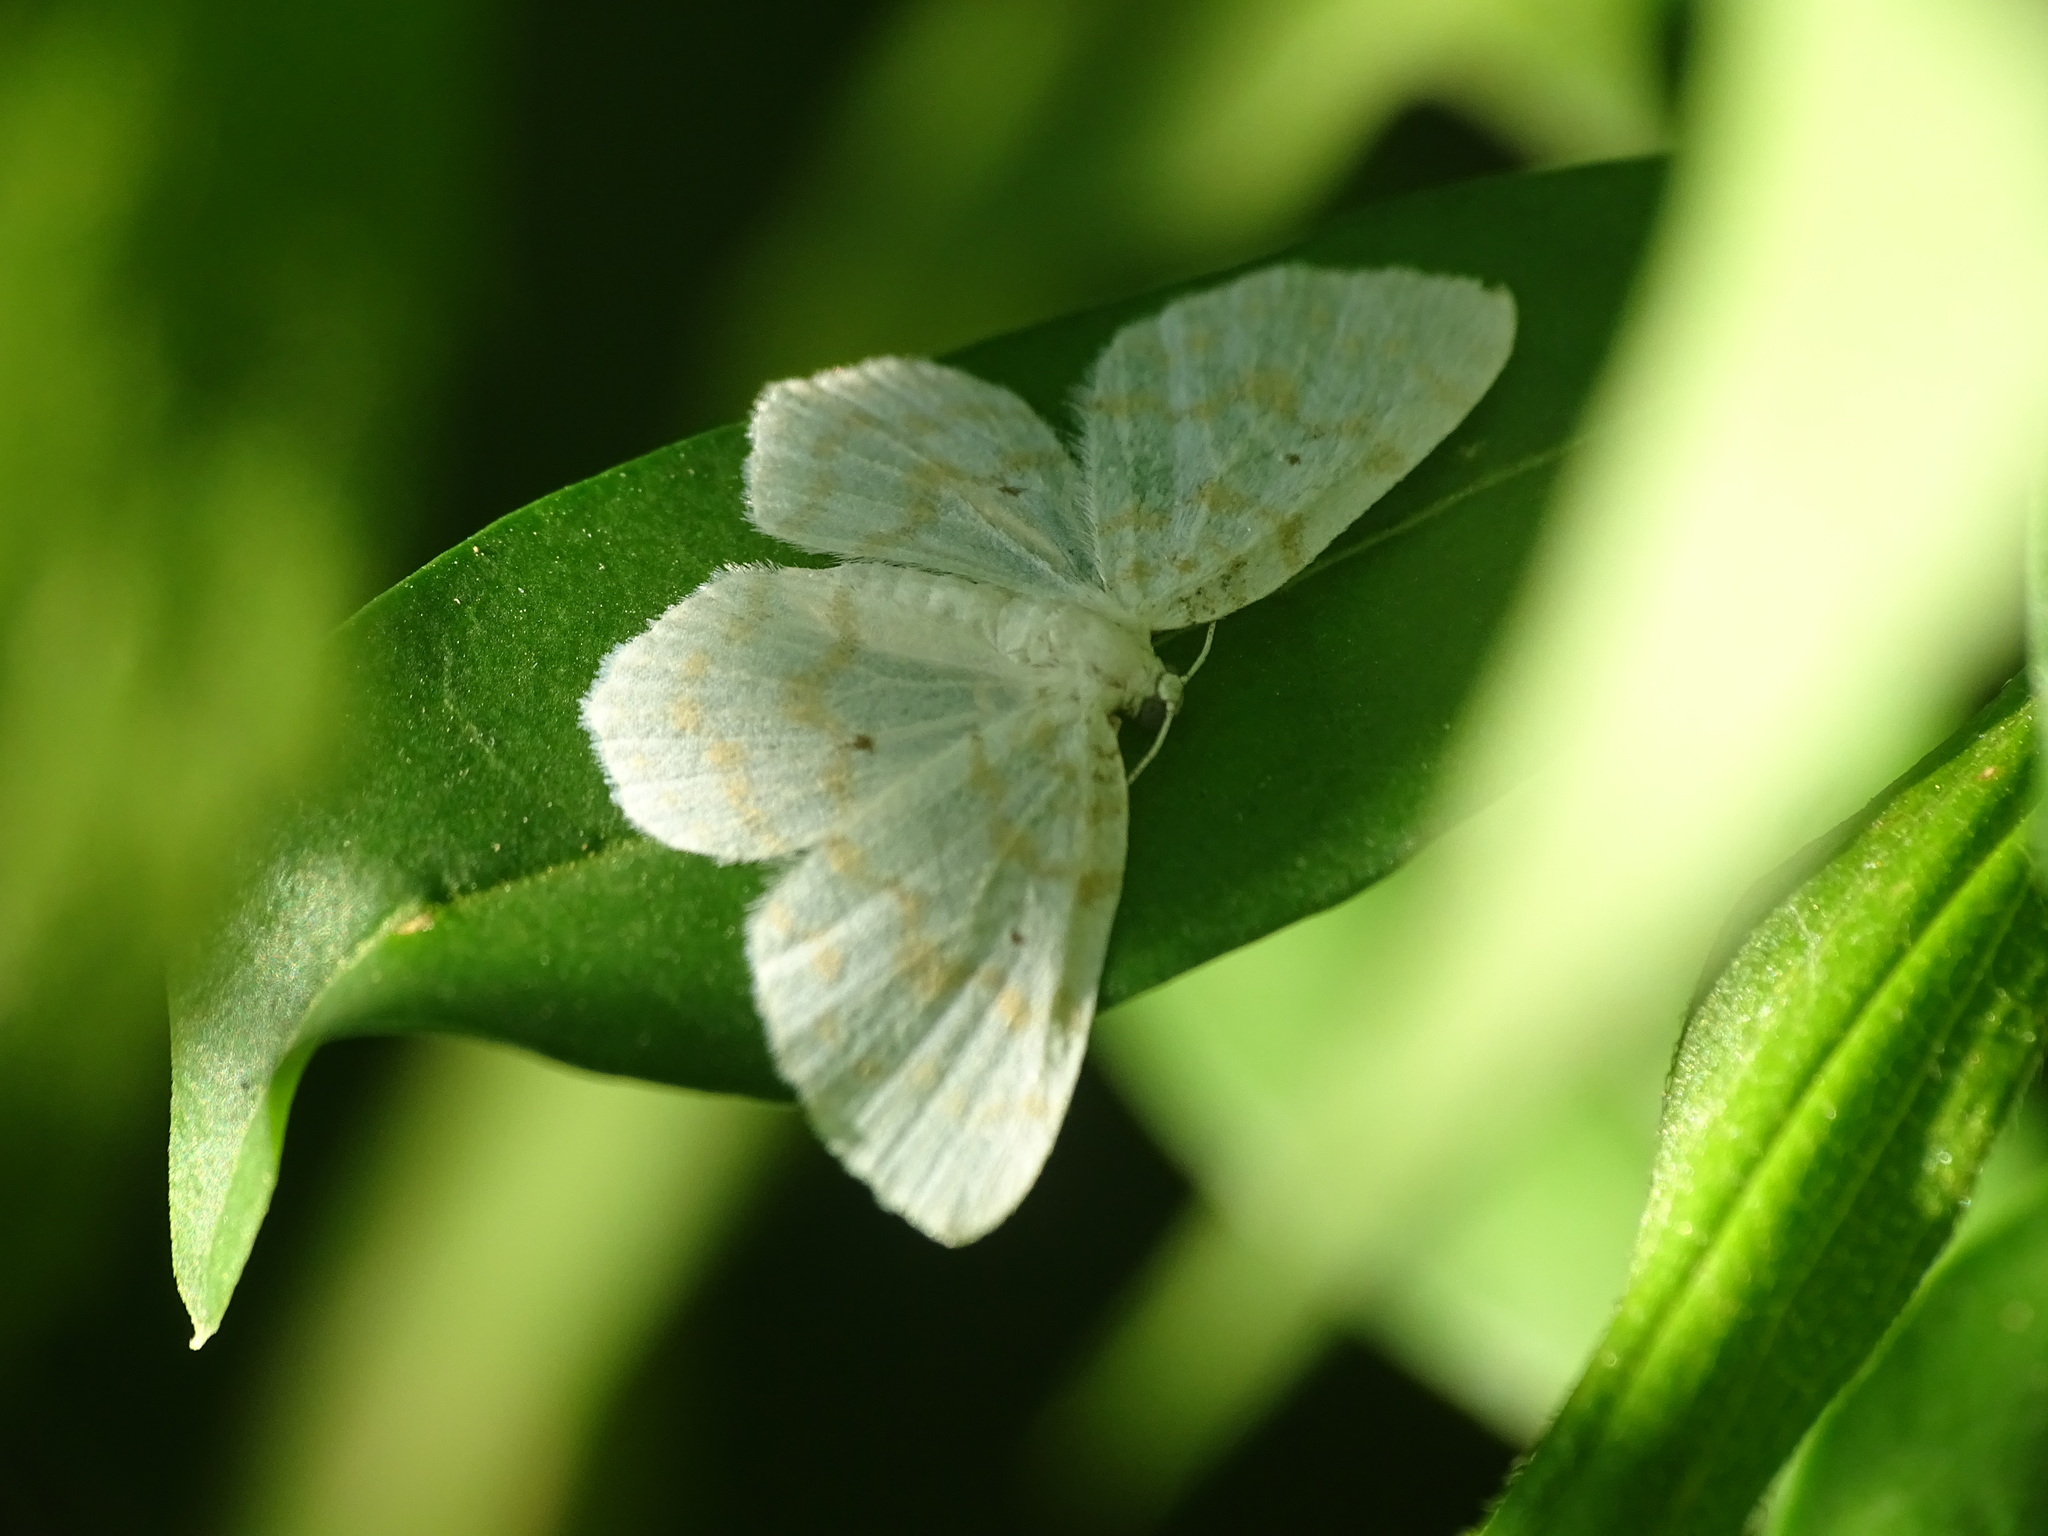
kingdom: Animalia
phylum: Arthropoda
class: Insecta
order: Lepidoptera
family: Geometridae
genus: Hydrelia
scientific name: Hydrelia albifera
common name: Fragile white carpet
